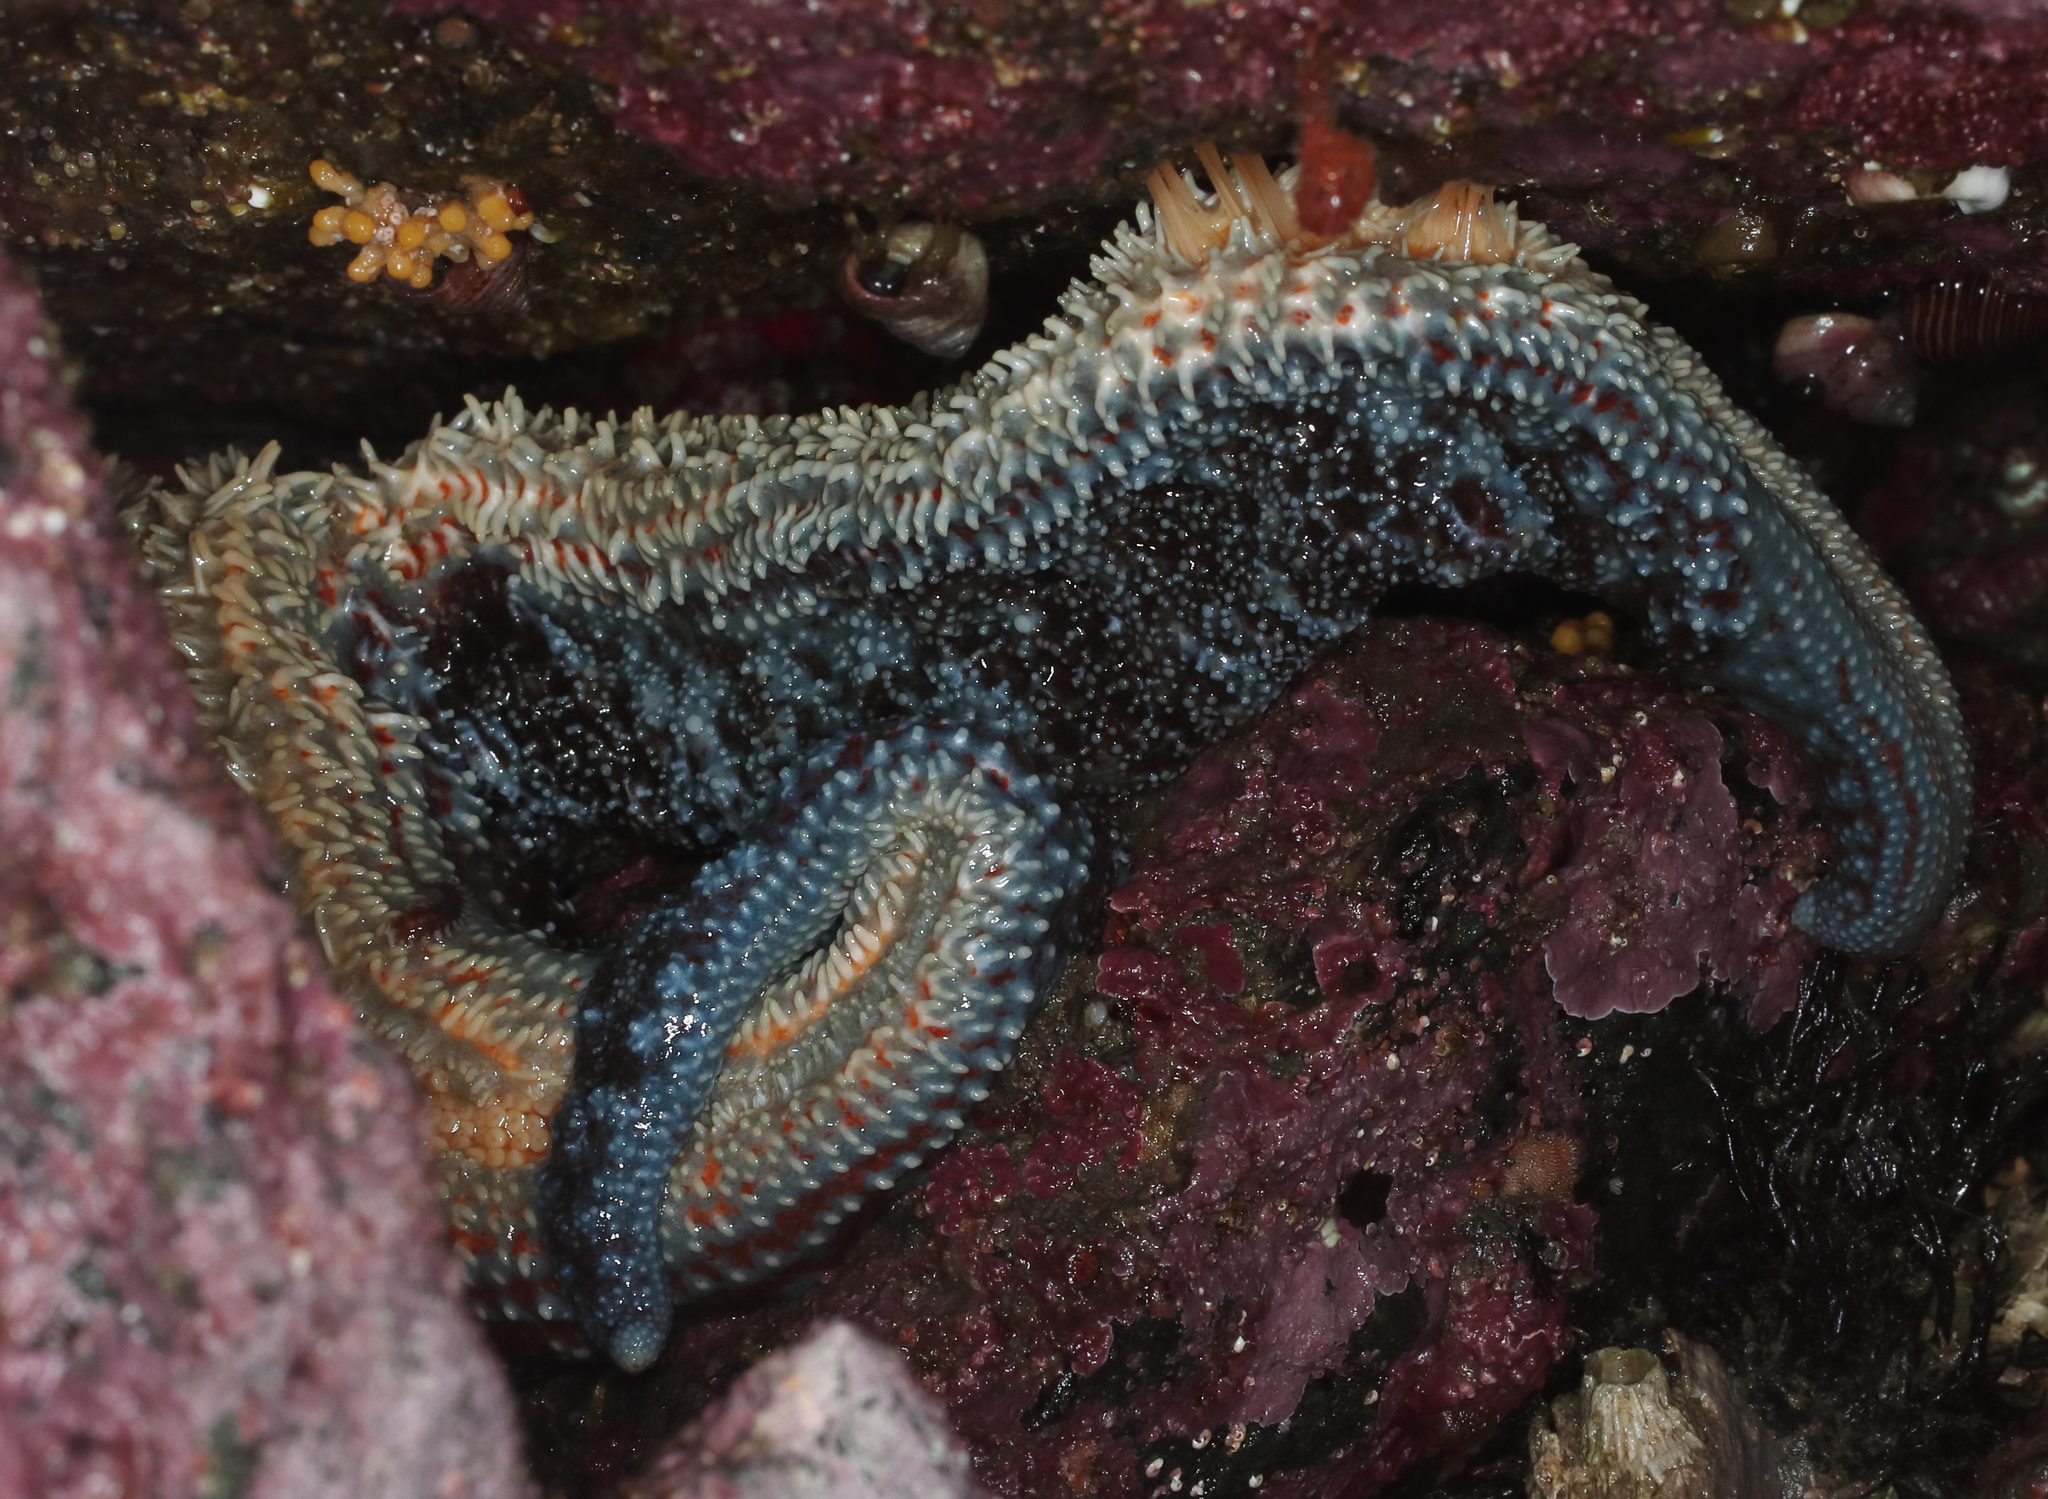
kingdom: Animalia
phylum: Echinodermata
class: Asteroidea
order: Forcipulatida
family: Asteriidae
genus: Evasterias
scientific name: Evasterias troschelii
